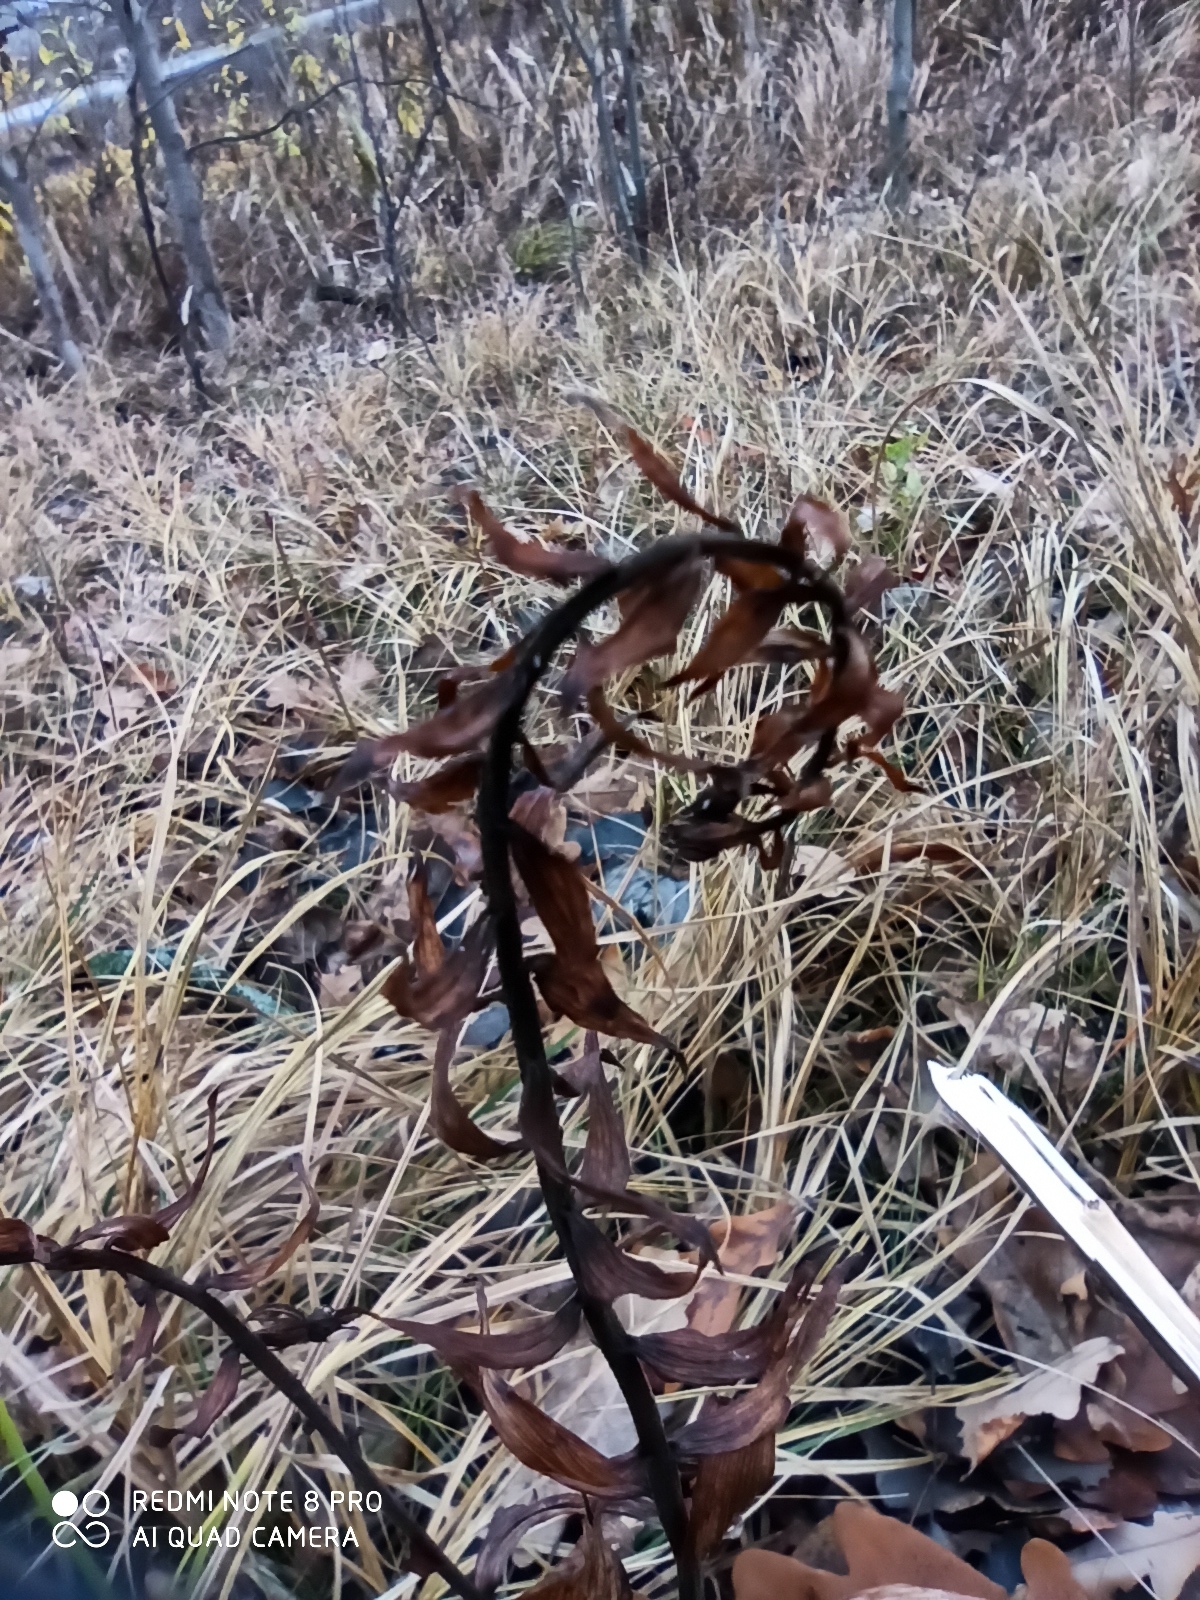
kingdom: Plantae
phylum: Tracheophyta
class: Liliopsida
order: Asparagales
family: Orchidaceae
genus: Epipactis
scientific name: Epipactis helleborine
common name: Broad-leaved helleborine
